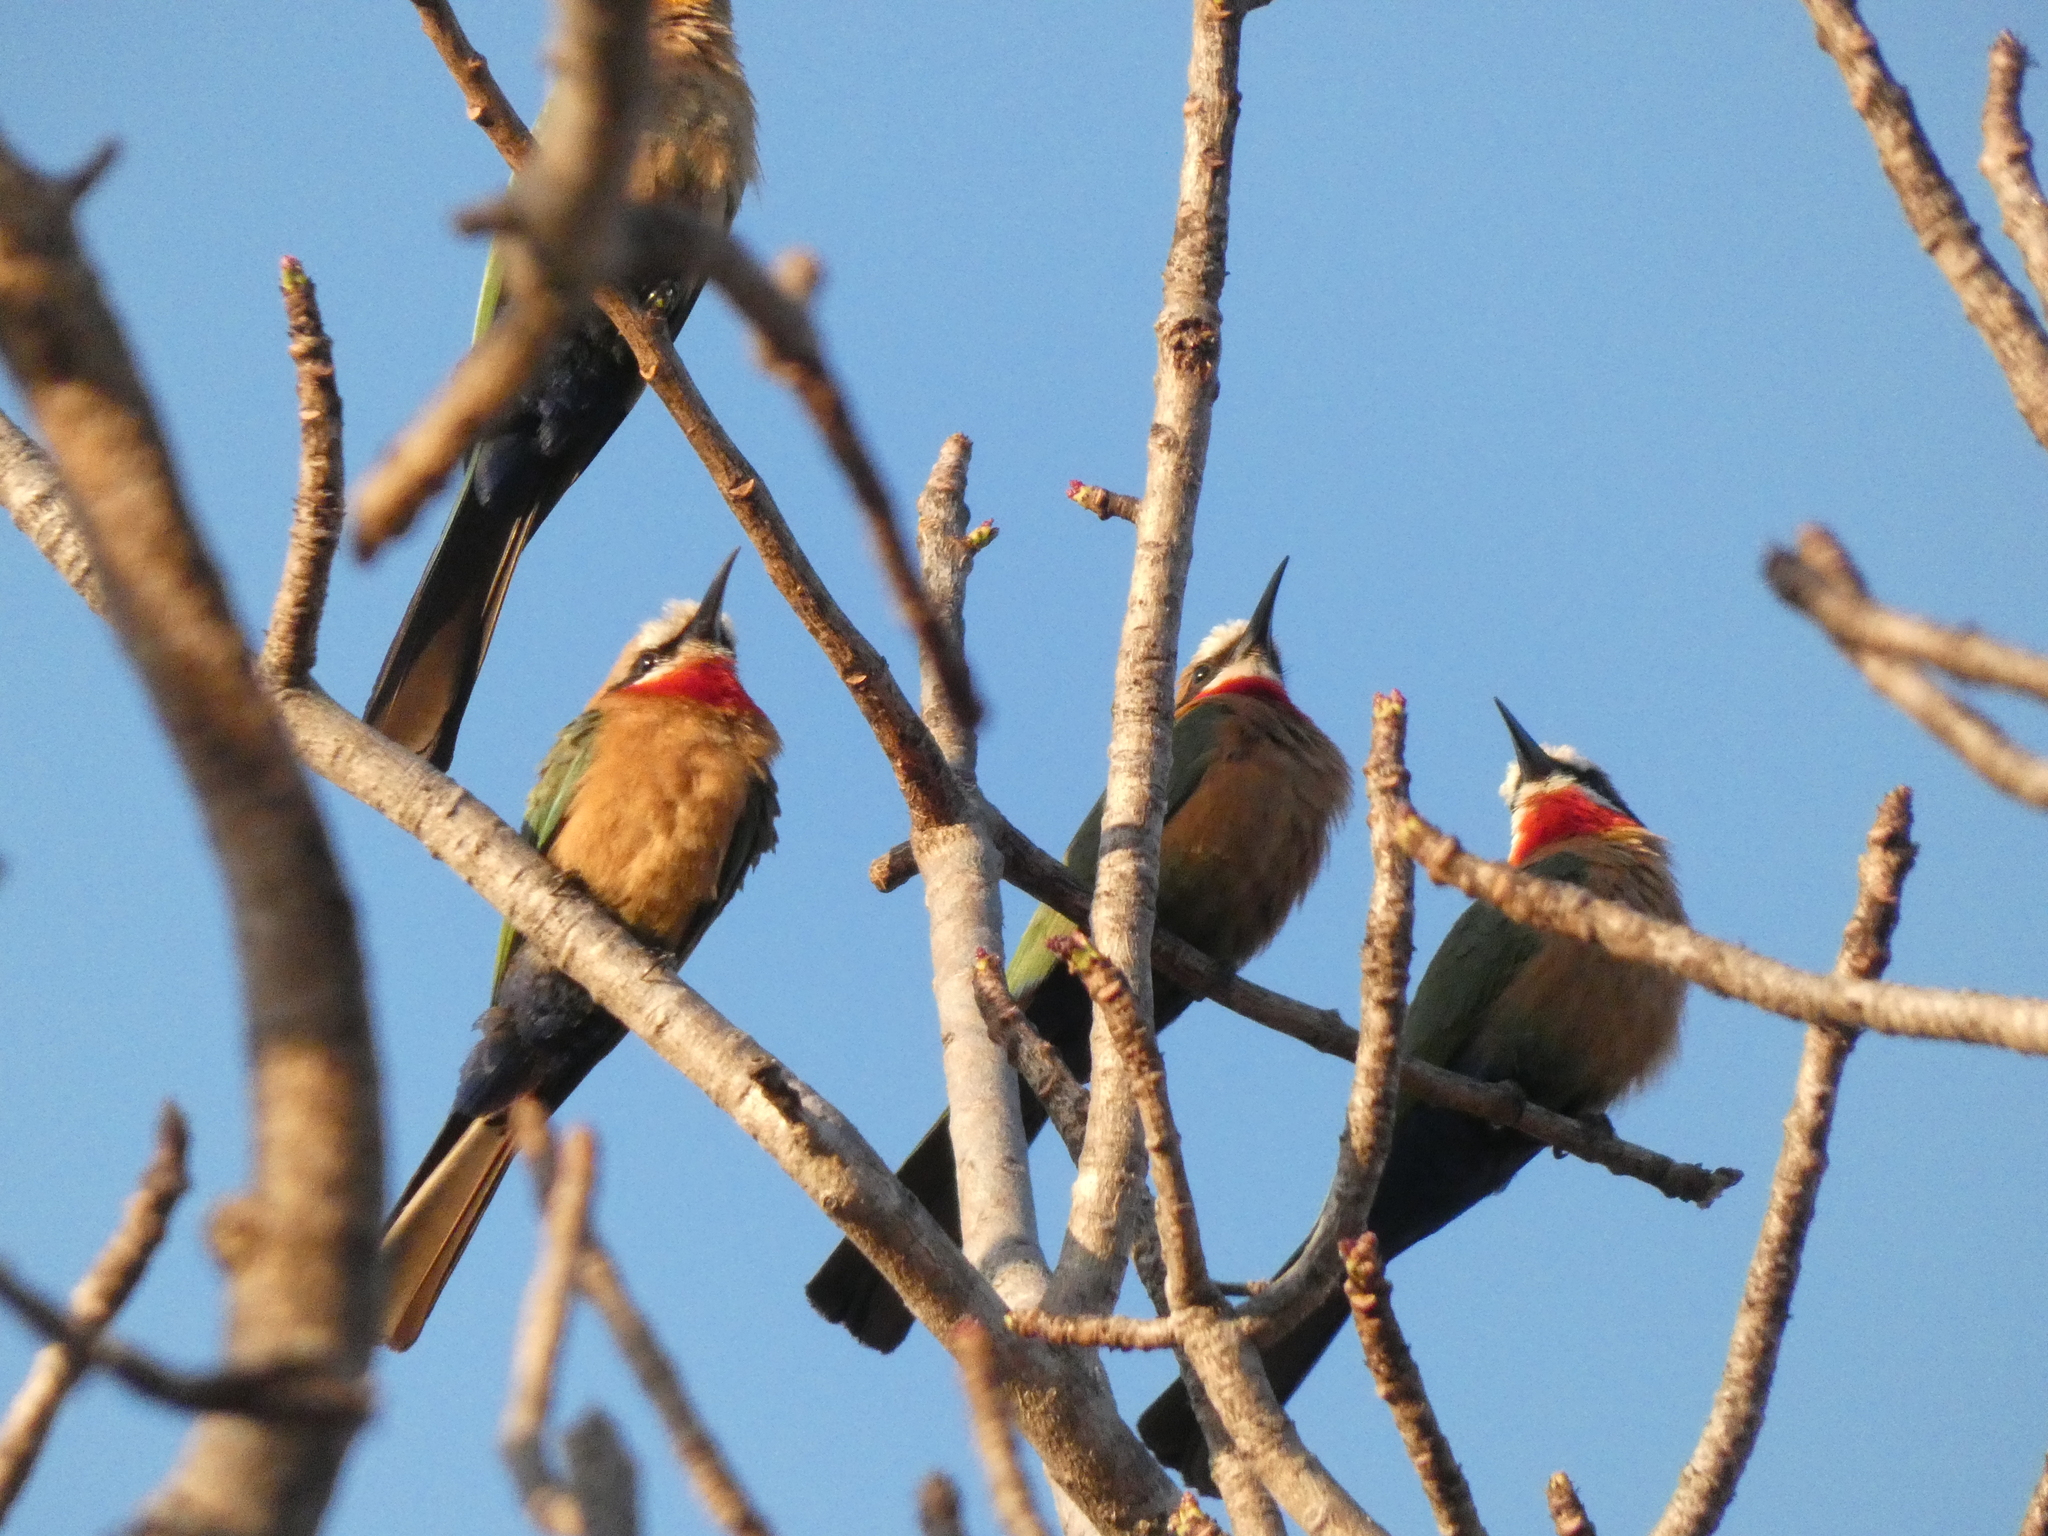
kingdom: Animalia
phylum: Chordata
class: Aves
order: Coraciiformes
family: Meropidae
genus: Merops
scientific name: Merops bullockoides
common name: White-fronted bee-eater
